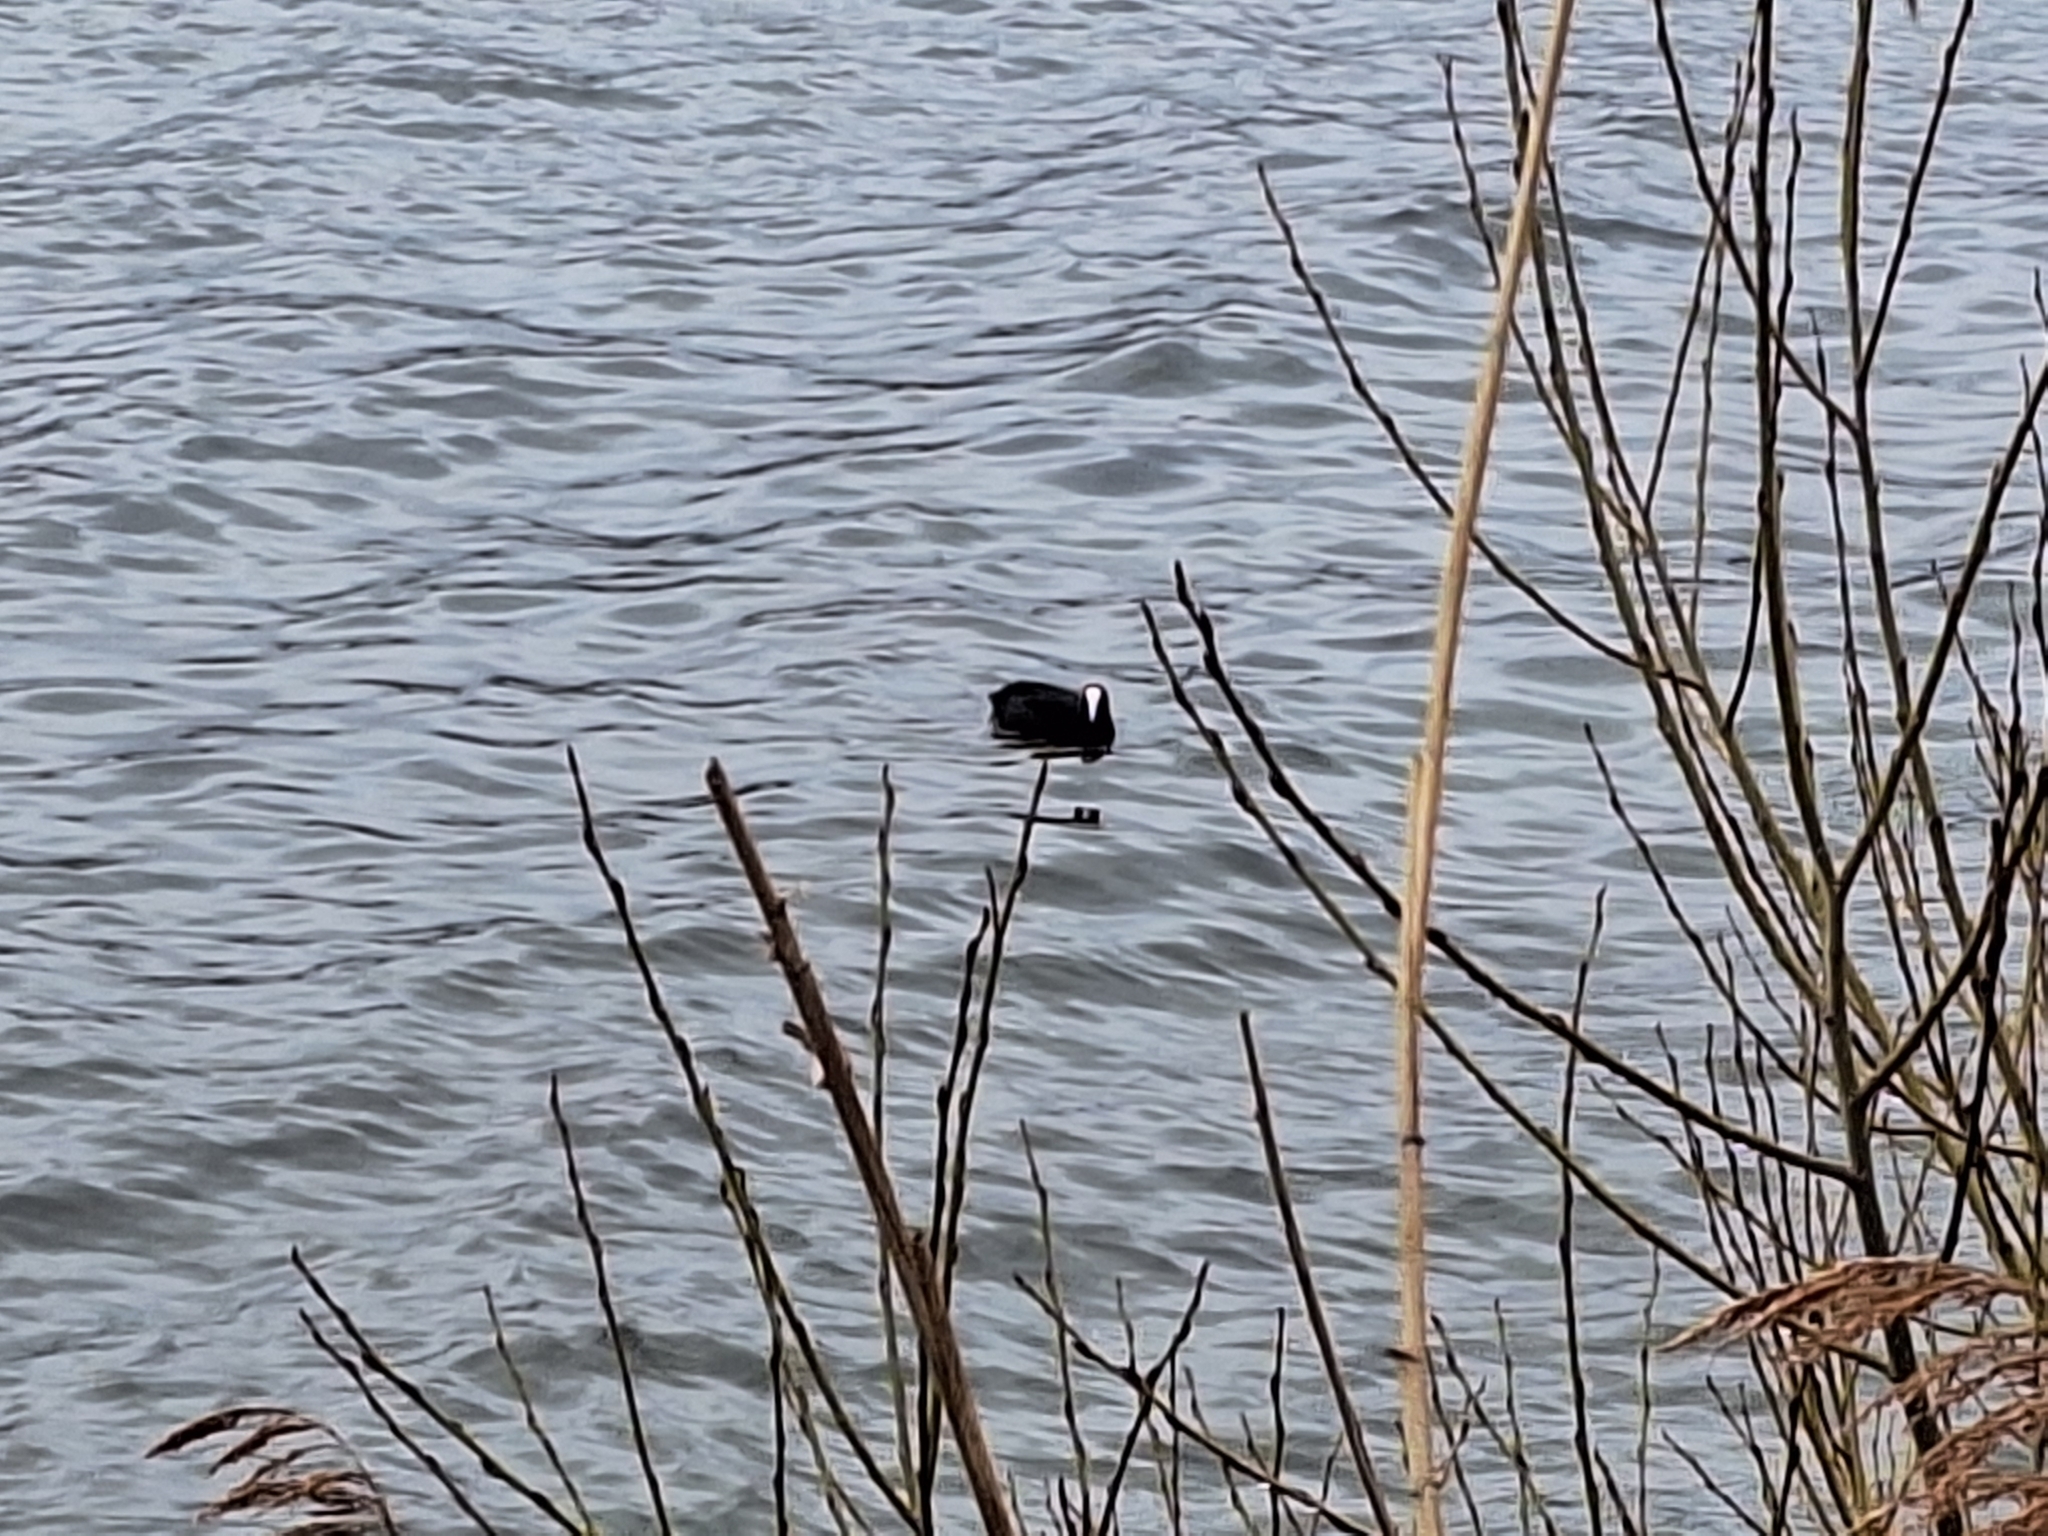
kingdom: Animalia
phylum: Chordata
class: Aves
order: Gruiformes
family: Rallidae
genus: Fulica
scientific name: Fulica atra
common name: Eurasian coot
